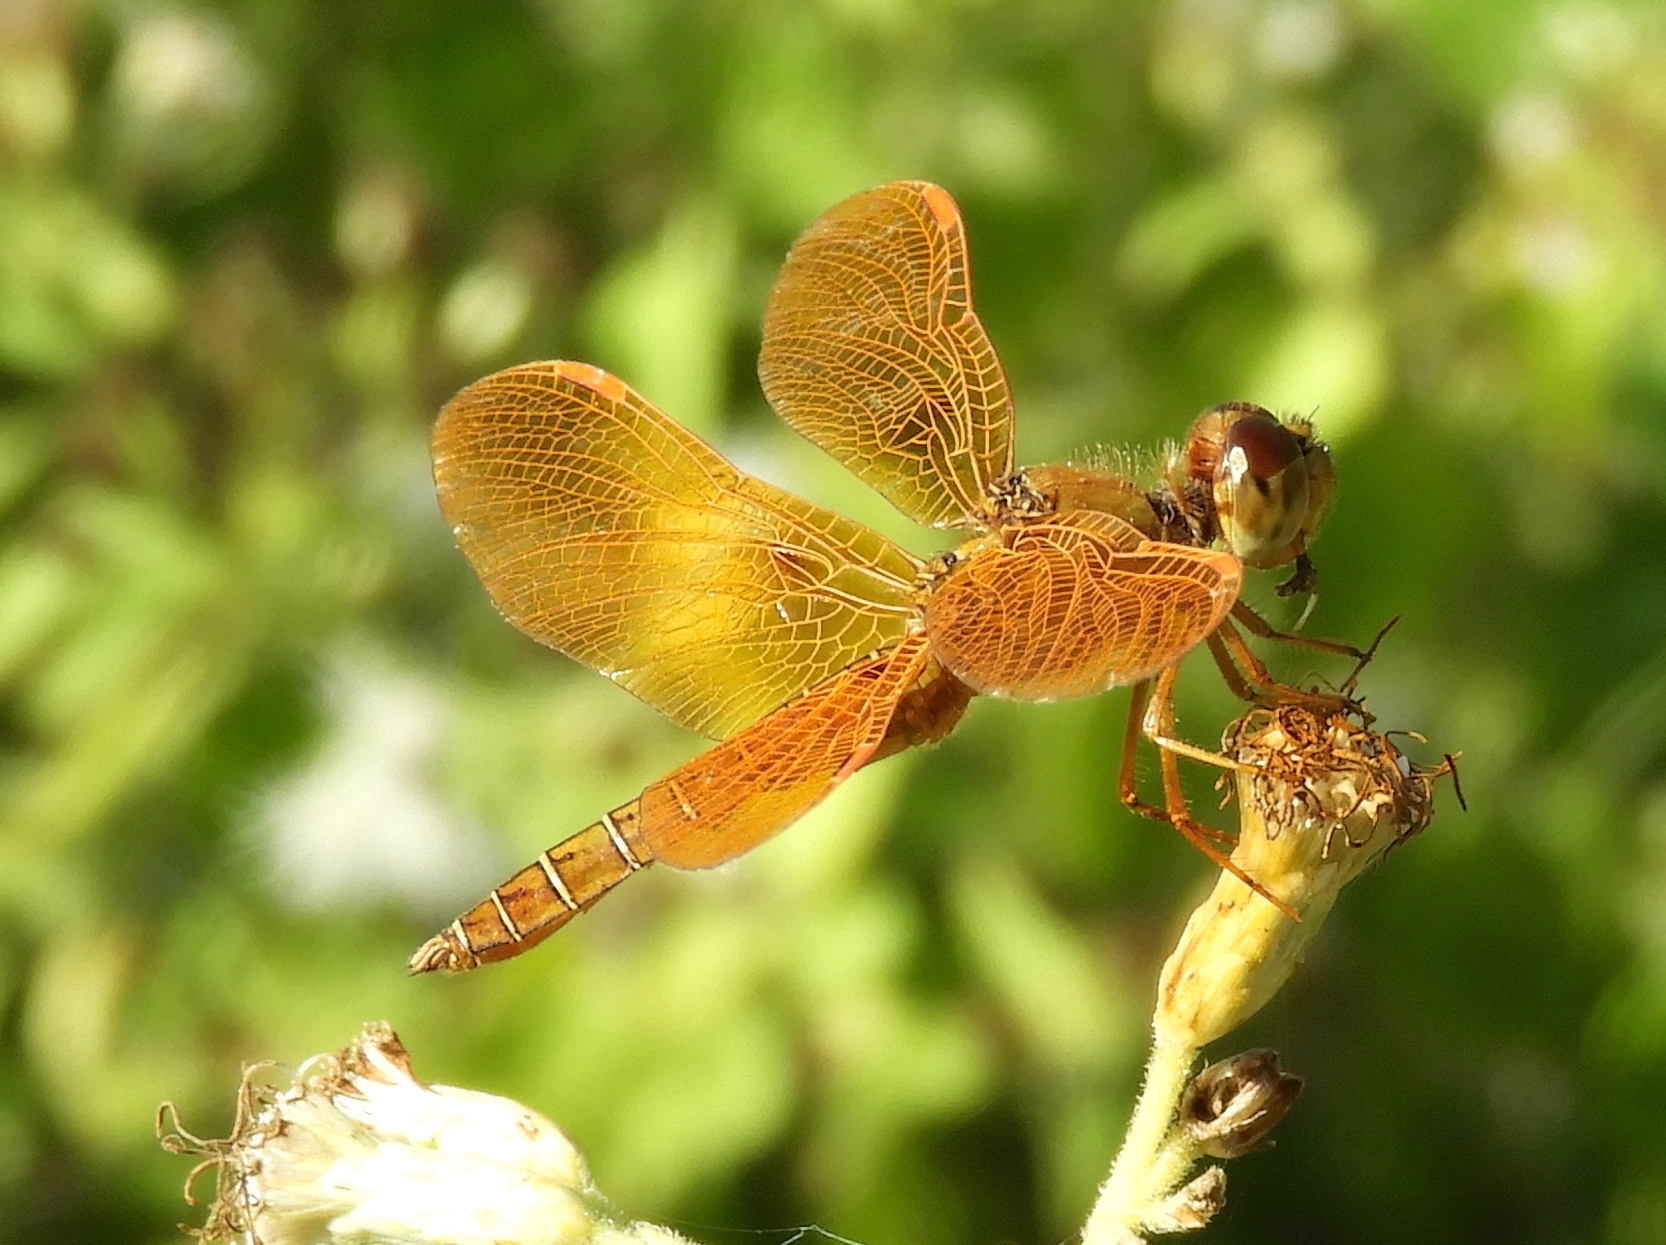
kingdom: Animalia
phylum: Arthropoda
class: Insecta
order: Odonata
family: Libellulidae
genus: Perithemis
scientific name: Perithemis intensa
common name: Mexican amberwing
